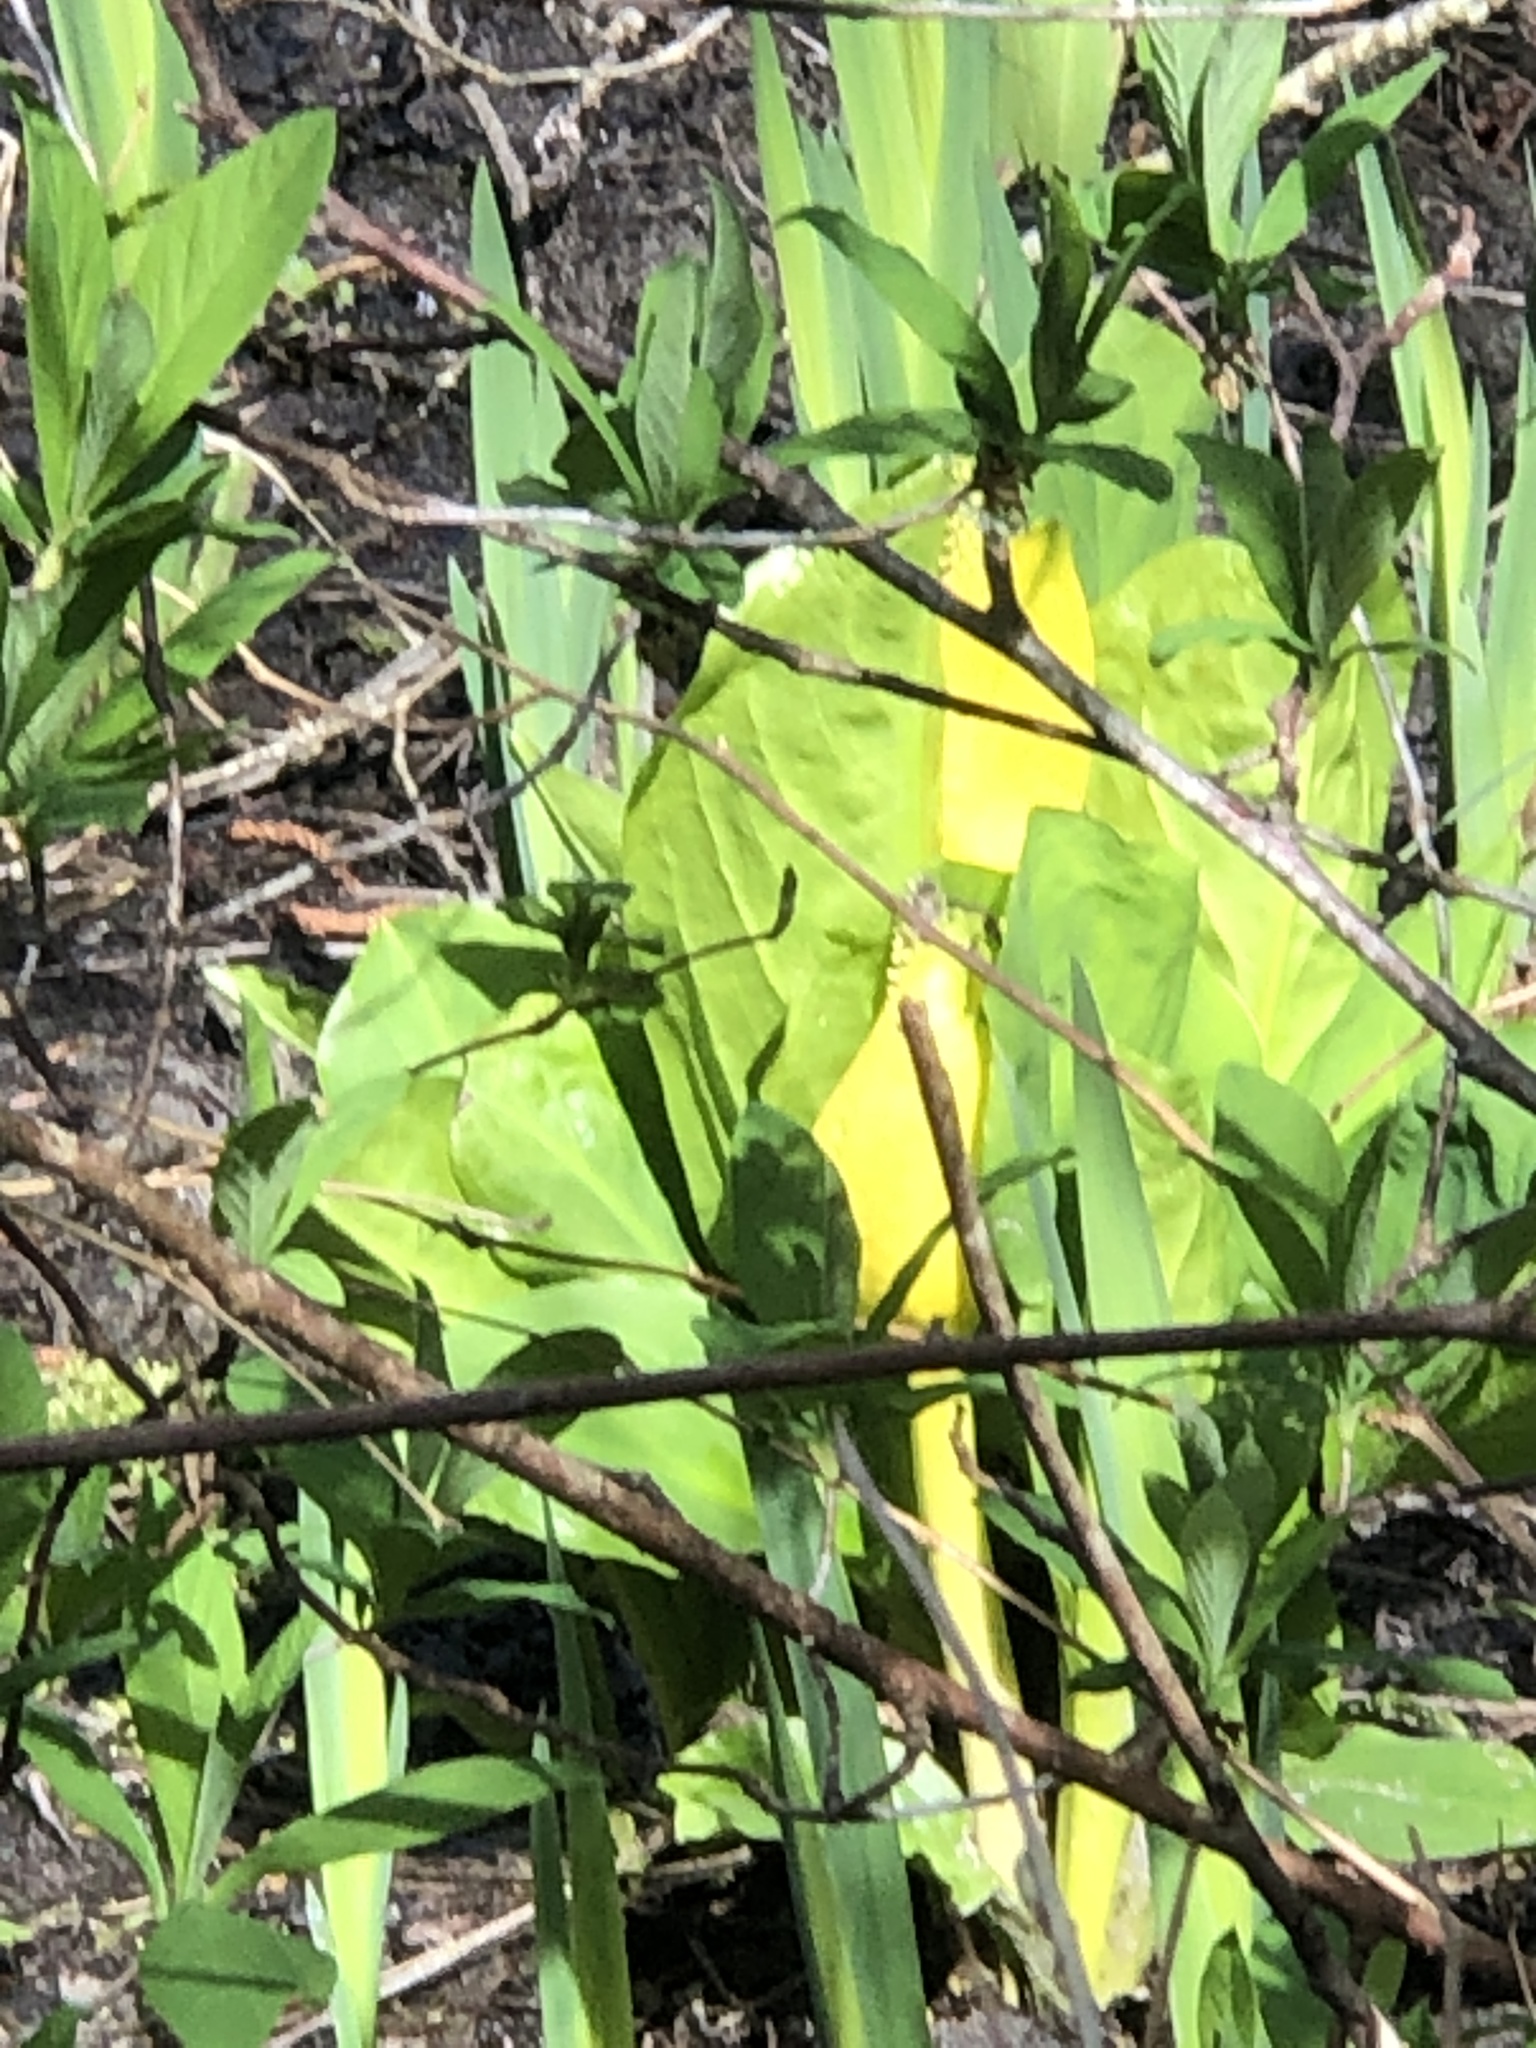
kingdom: Plantae
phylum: Tracheophyta
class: Liliopsida
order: Alismatales
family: Araceae
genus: Lysichiton
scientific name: Lysichiton americanus
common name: American skunk cabbage
